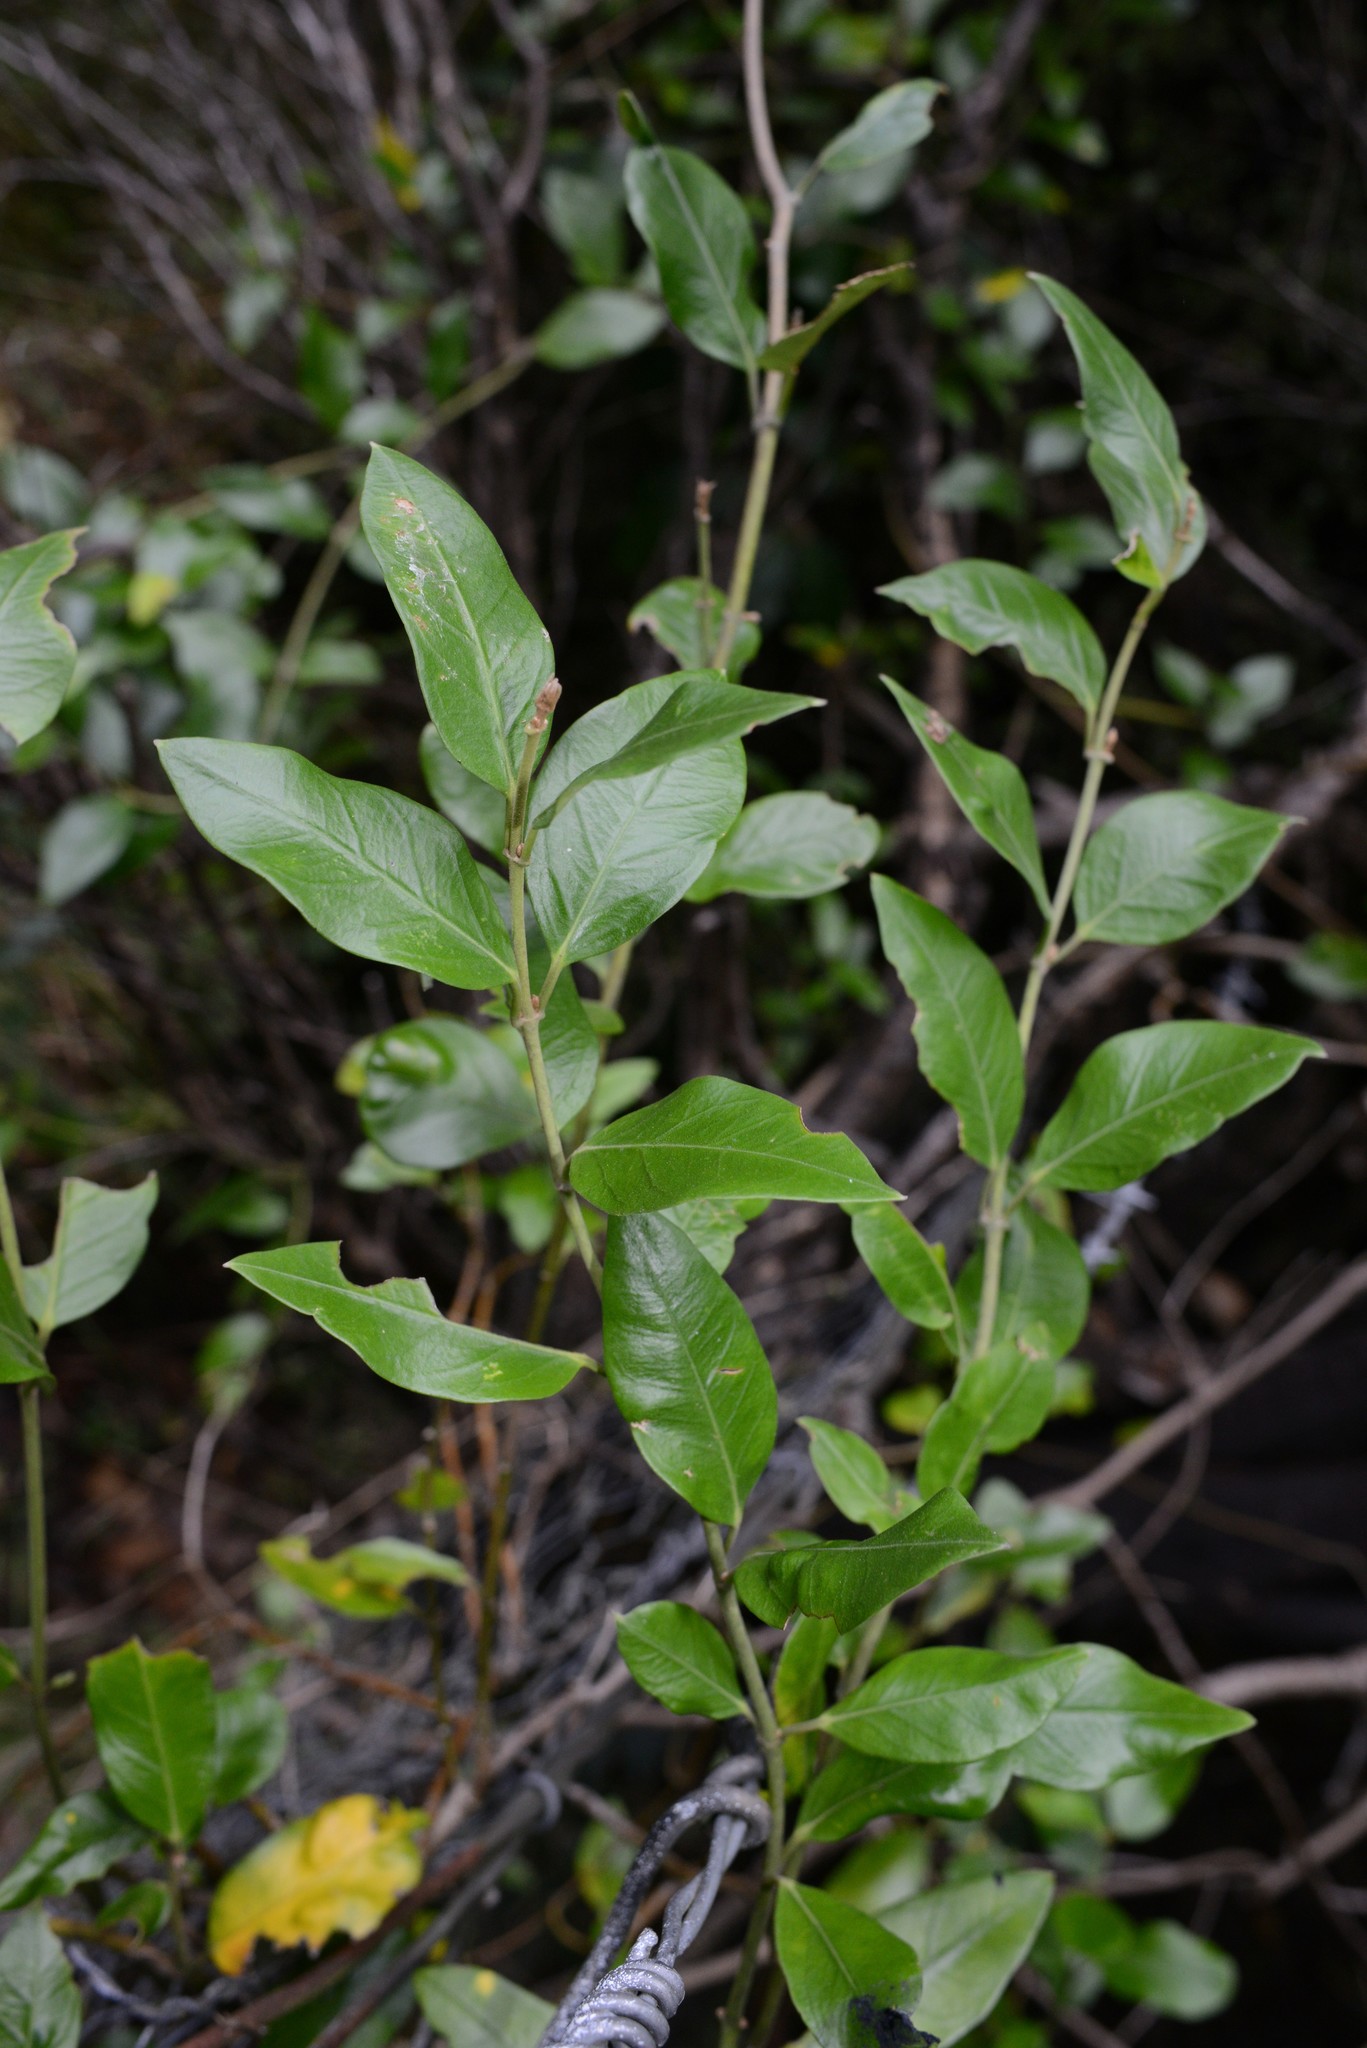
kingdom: Plantae
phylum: Tracheophyta
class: Magnoliopsida
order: Gentianales
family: Apocynaceae
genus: Parsonsia
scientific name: Parsonsia heterophylla
